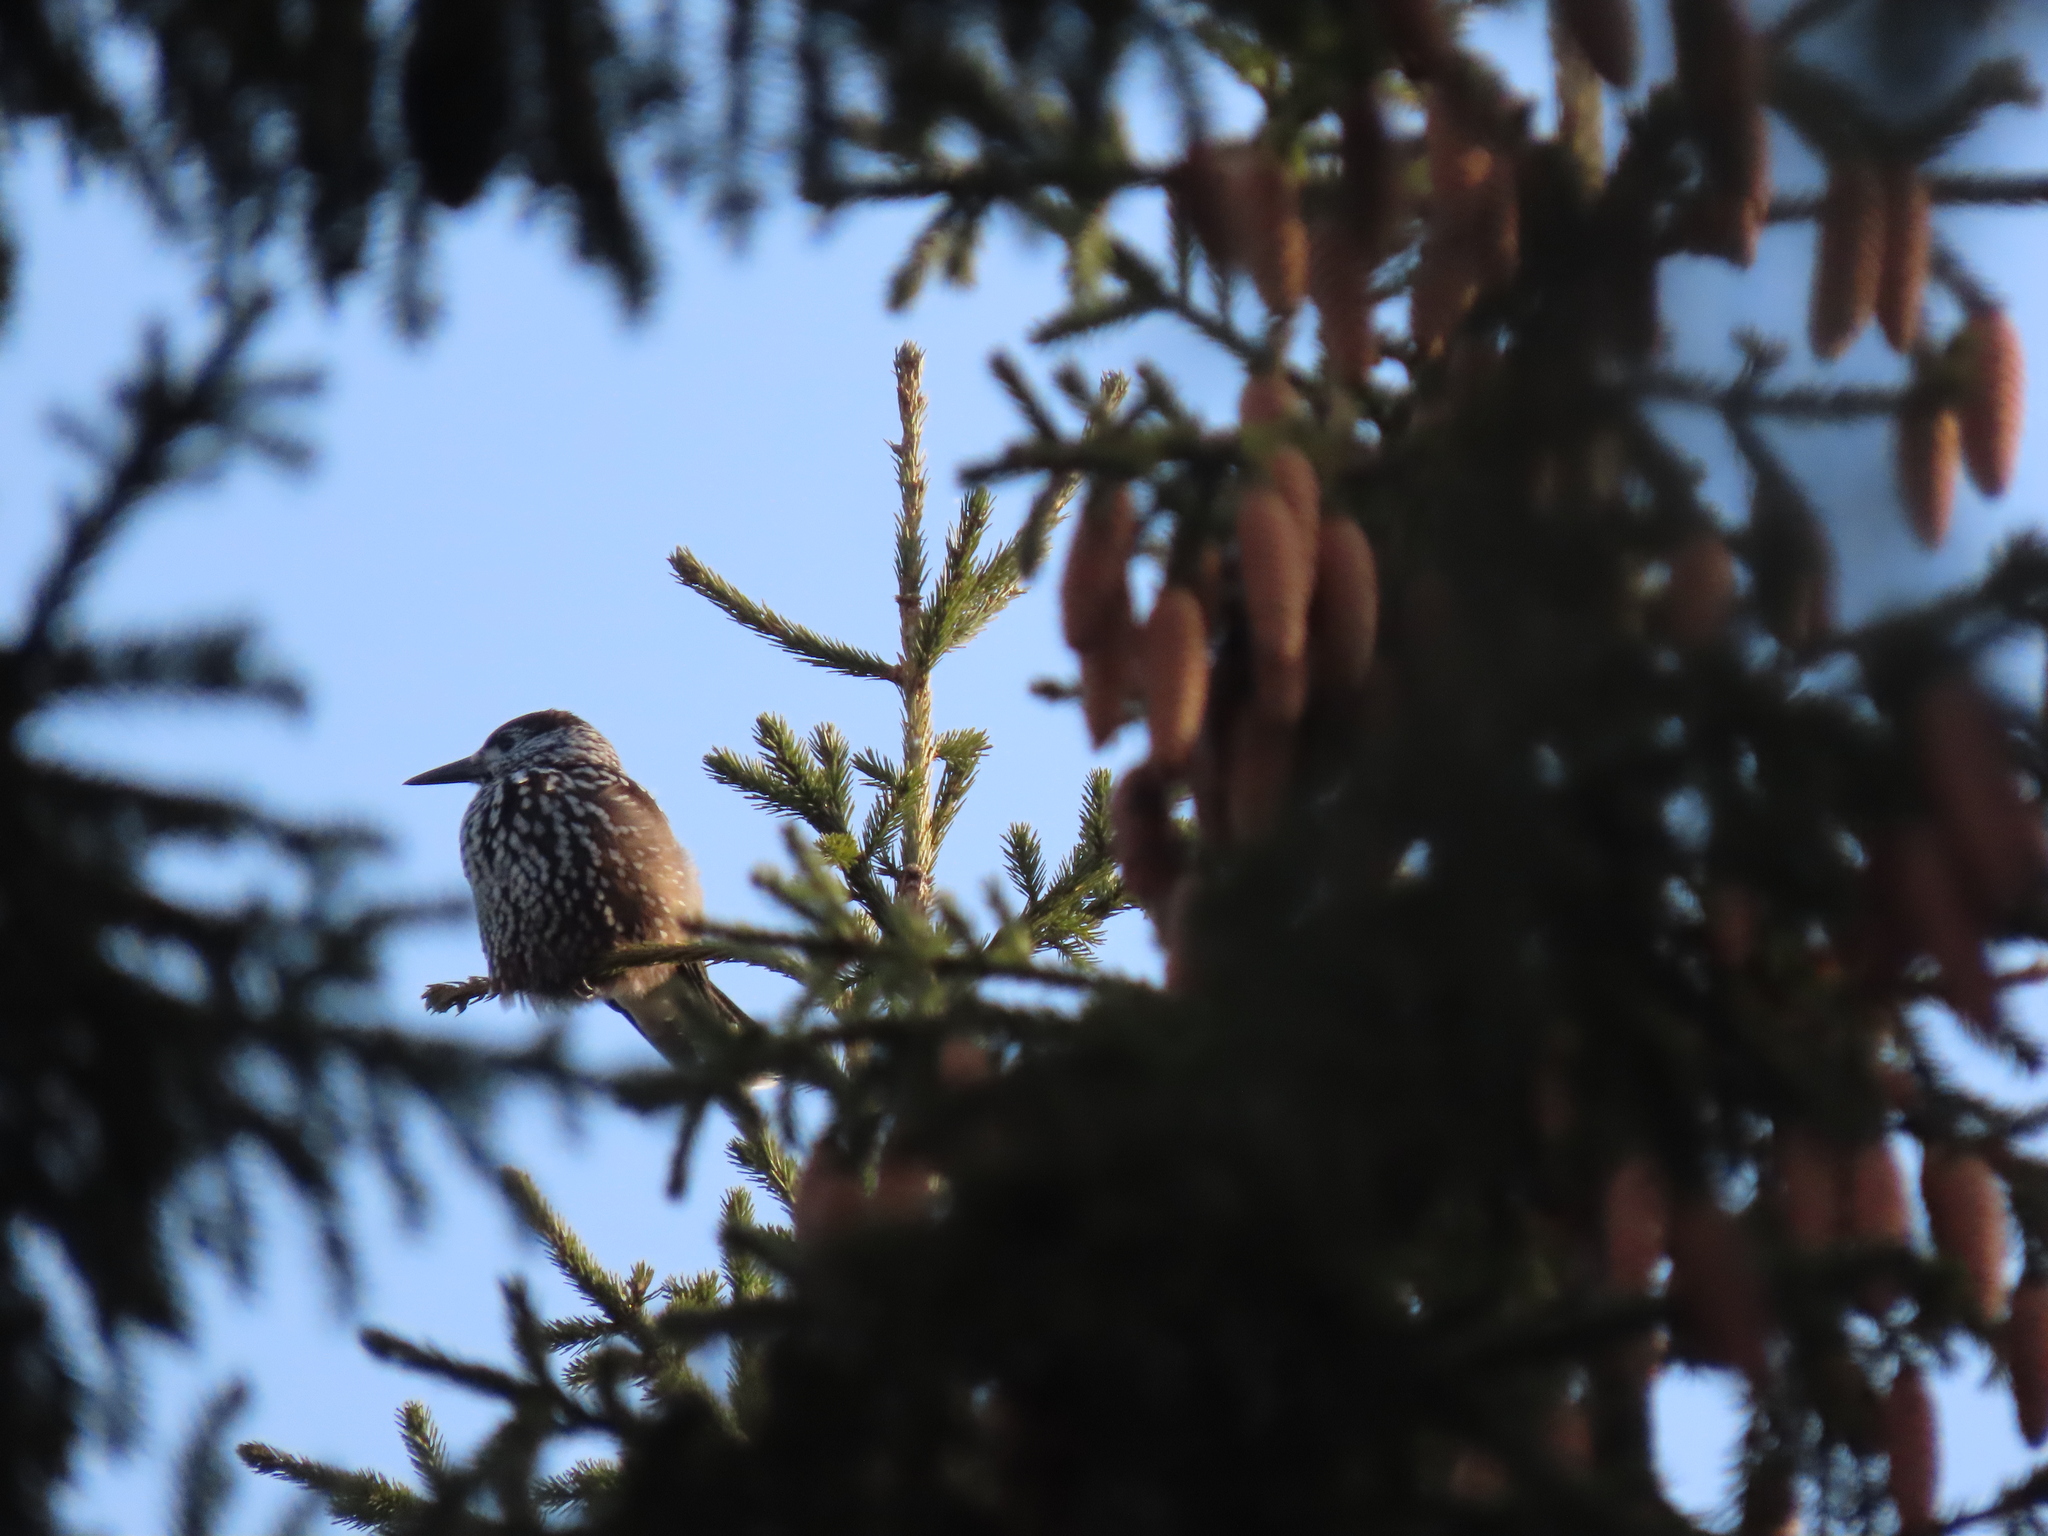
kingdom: Animalia
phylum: Chordata
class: Aves
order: Passeriformes
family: Corvidae
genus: Nucifraga
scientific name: Nucifraga caryocatactes
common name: Spotted nutcracker
